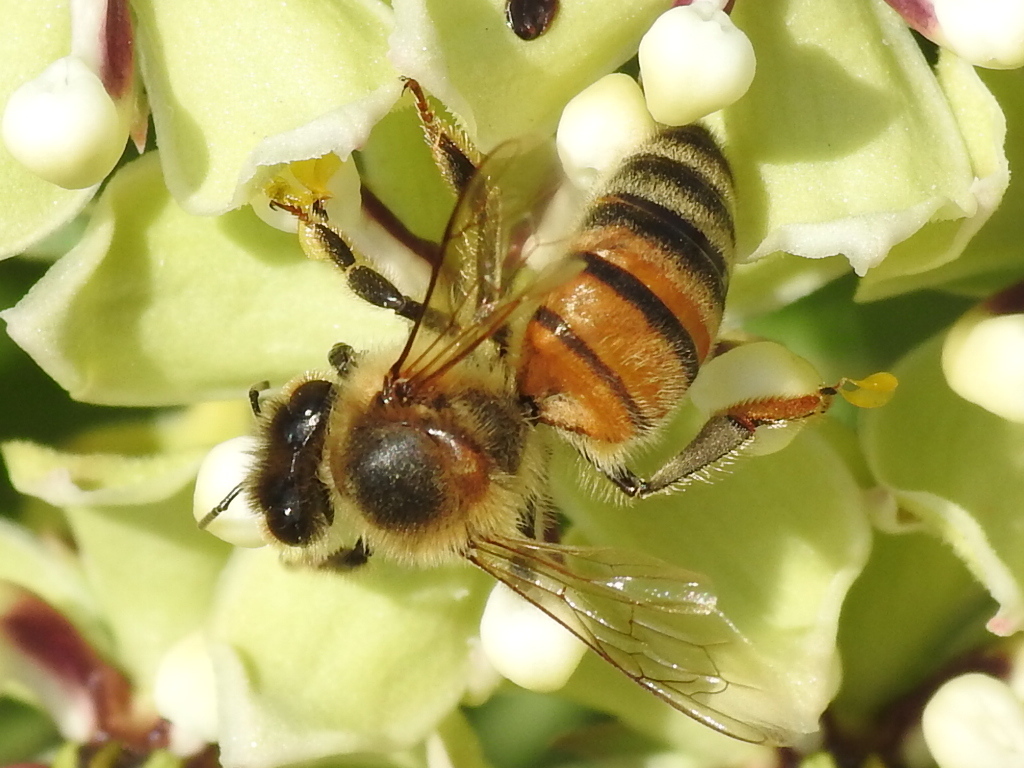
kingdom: Animalia
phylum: Arthropoda
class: Insecta
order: Hymenoptera
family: Apidae
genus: Apis
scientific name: Apis mellifera
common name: Honey bee
